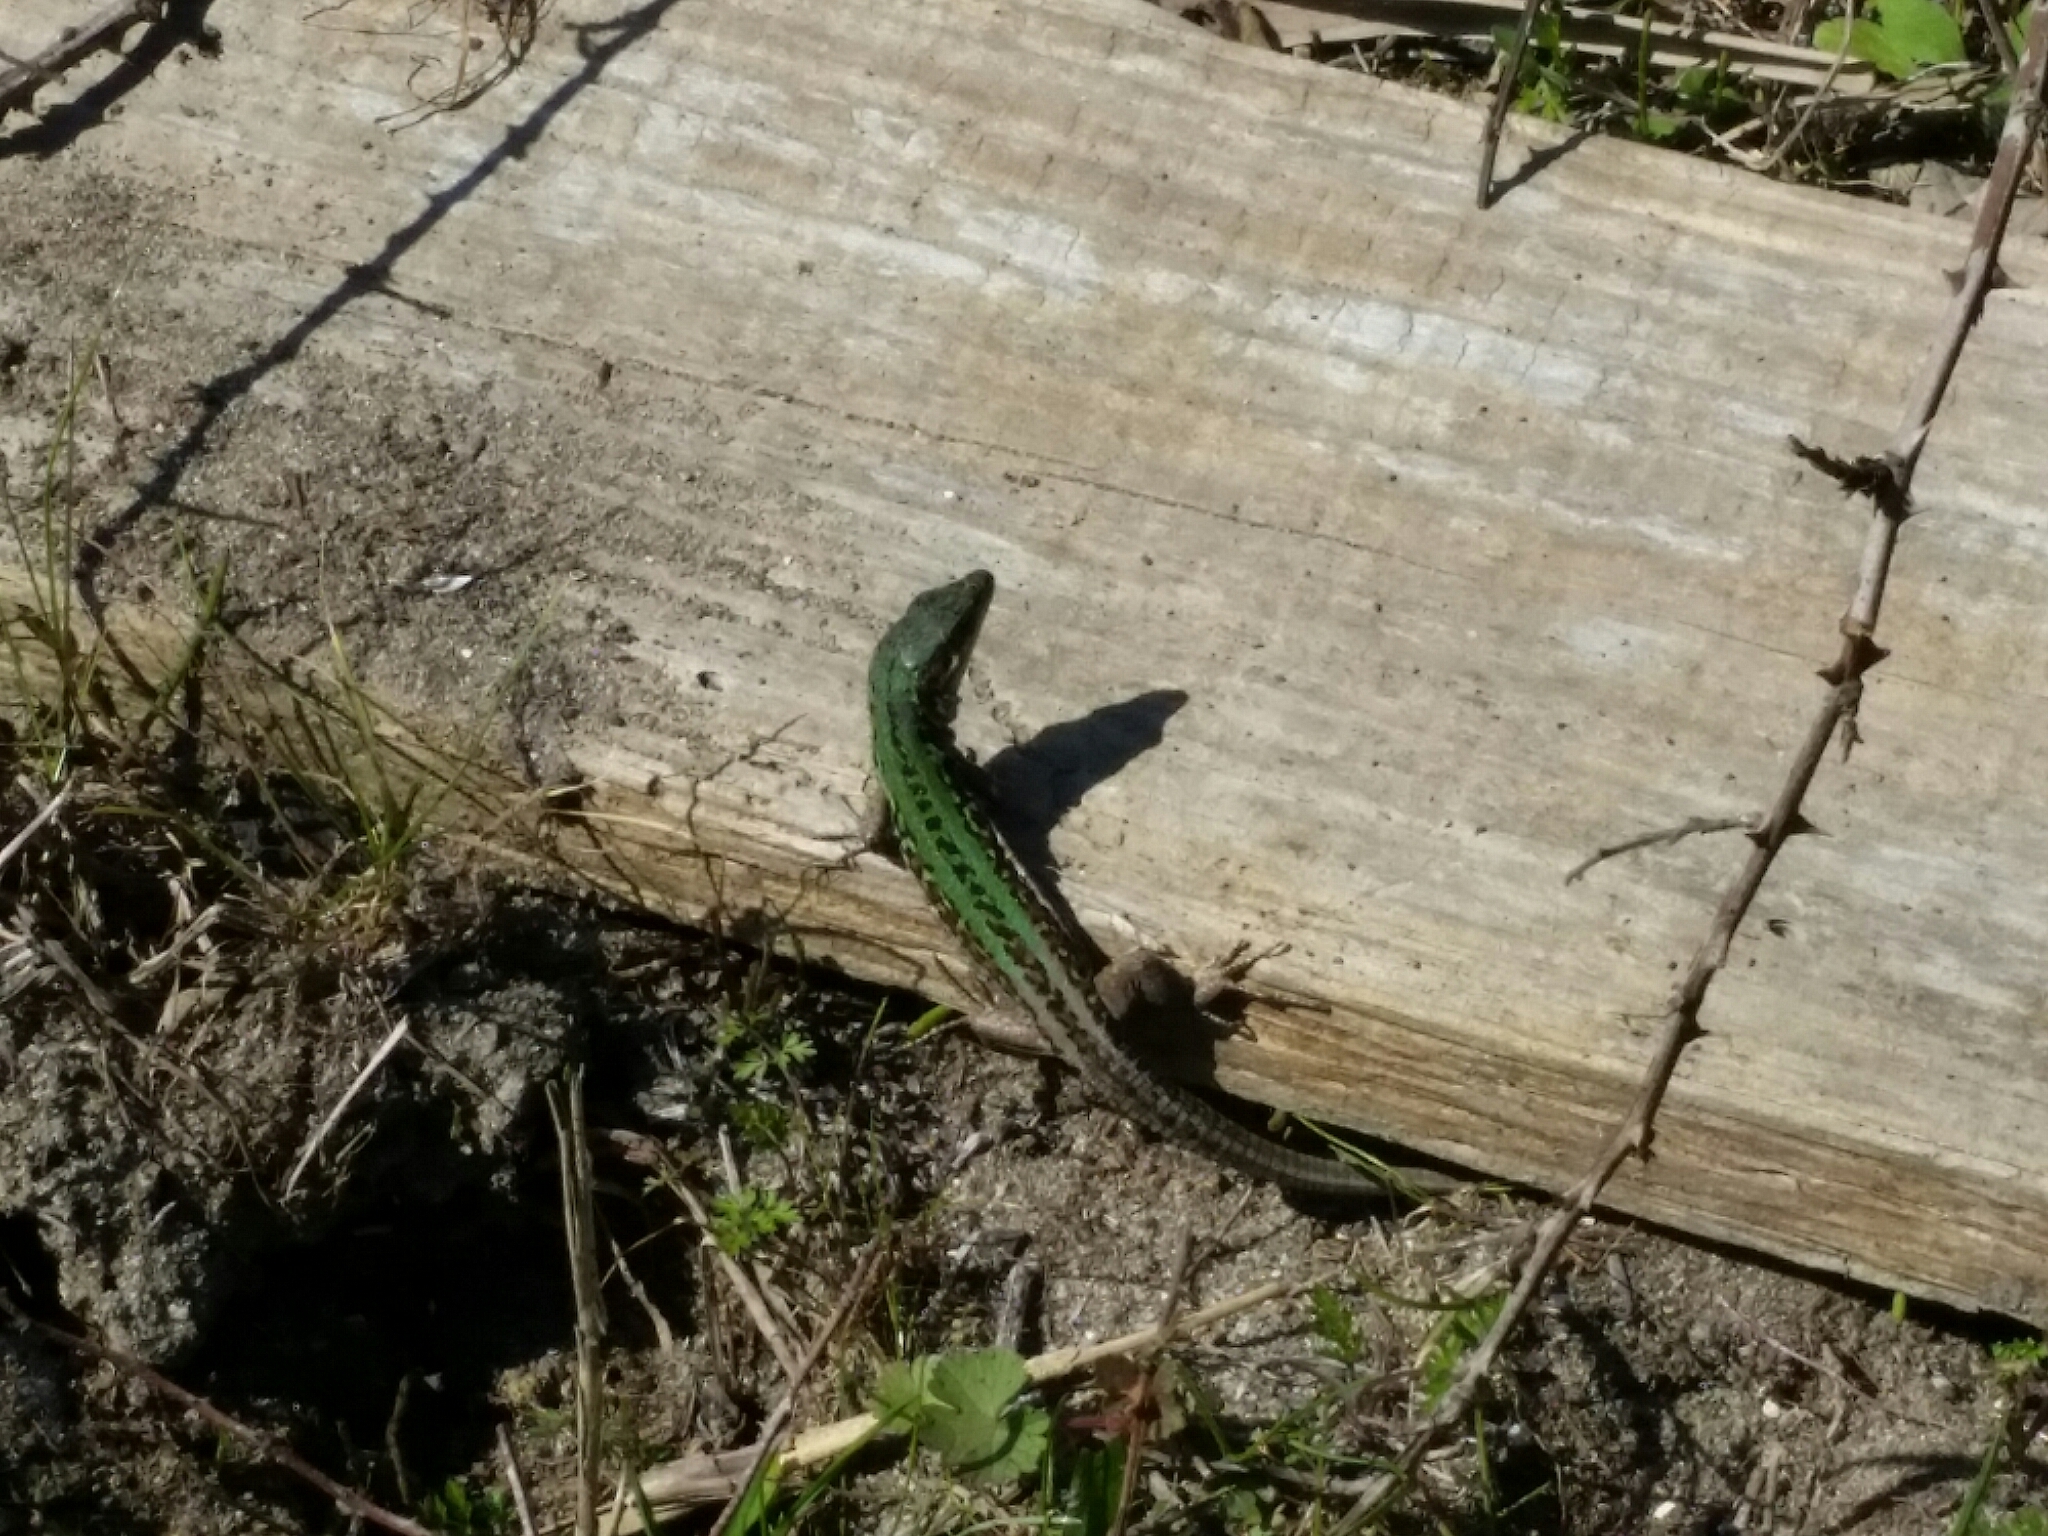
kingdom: Animalia
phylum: Chordata
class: Squamata
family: Lacertidae
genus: Podarcis
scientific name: Podarcis siculus
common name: Italian wall lizard
